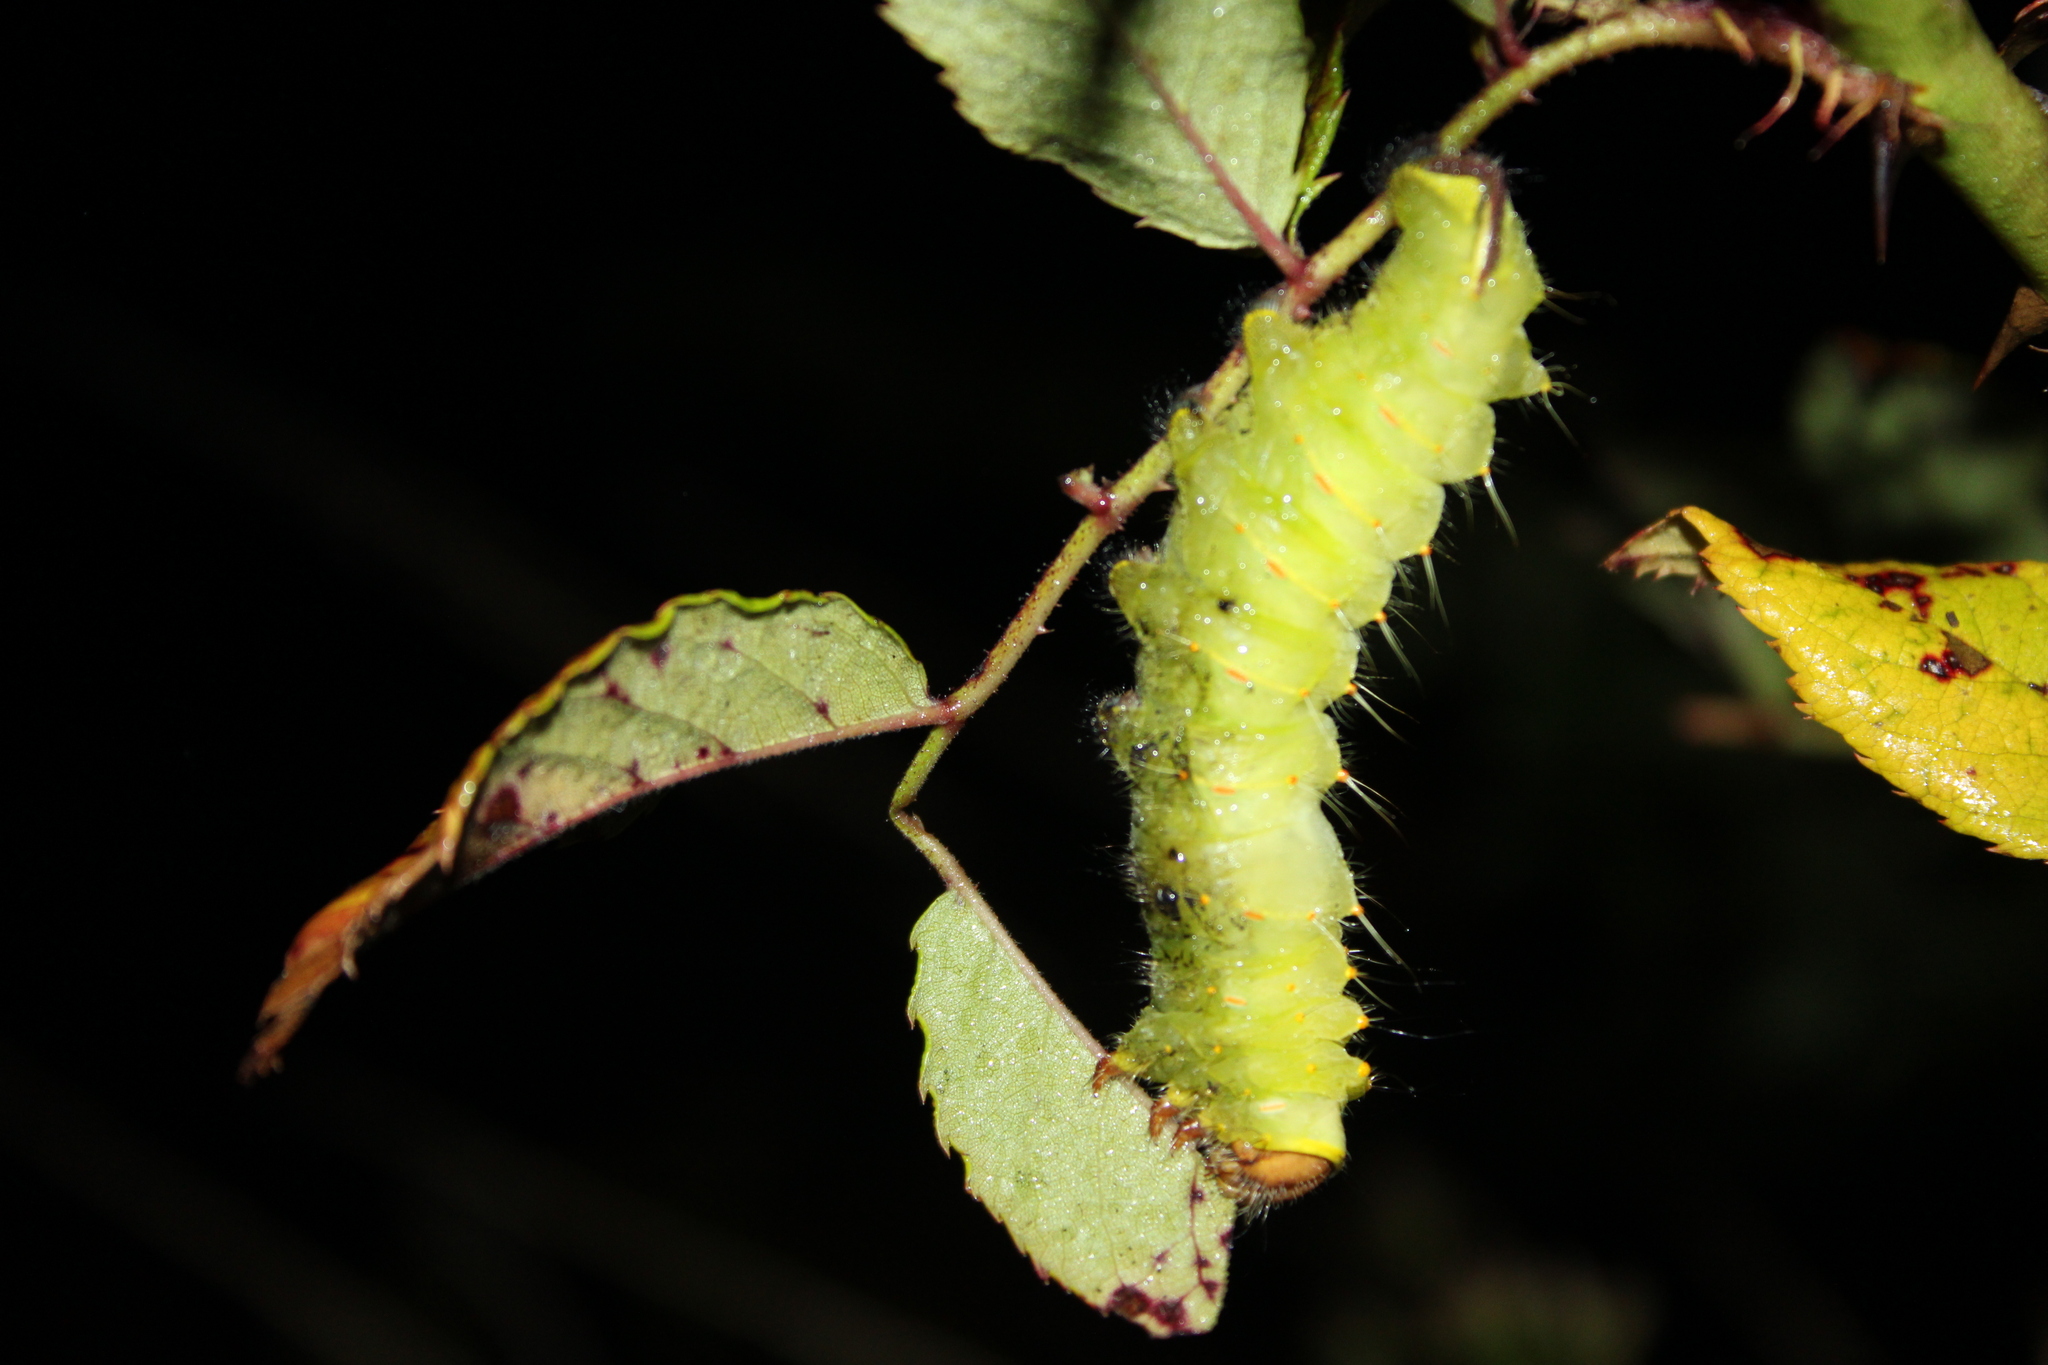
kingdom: Animalia
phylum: Arthropoda
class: Insecta
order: Lepidoptera
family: Saturniidae
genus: Antheraea
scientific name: Antheraea polyphemus
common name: Polyphemus moth
